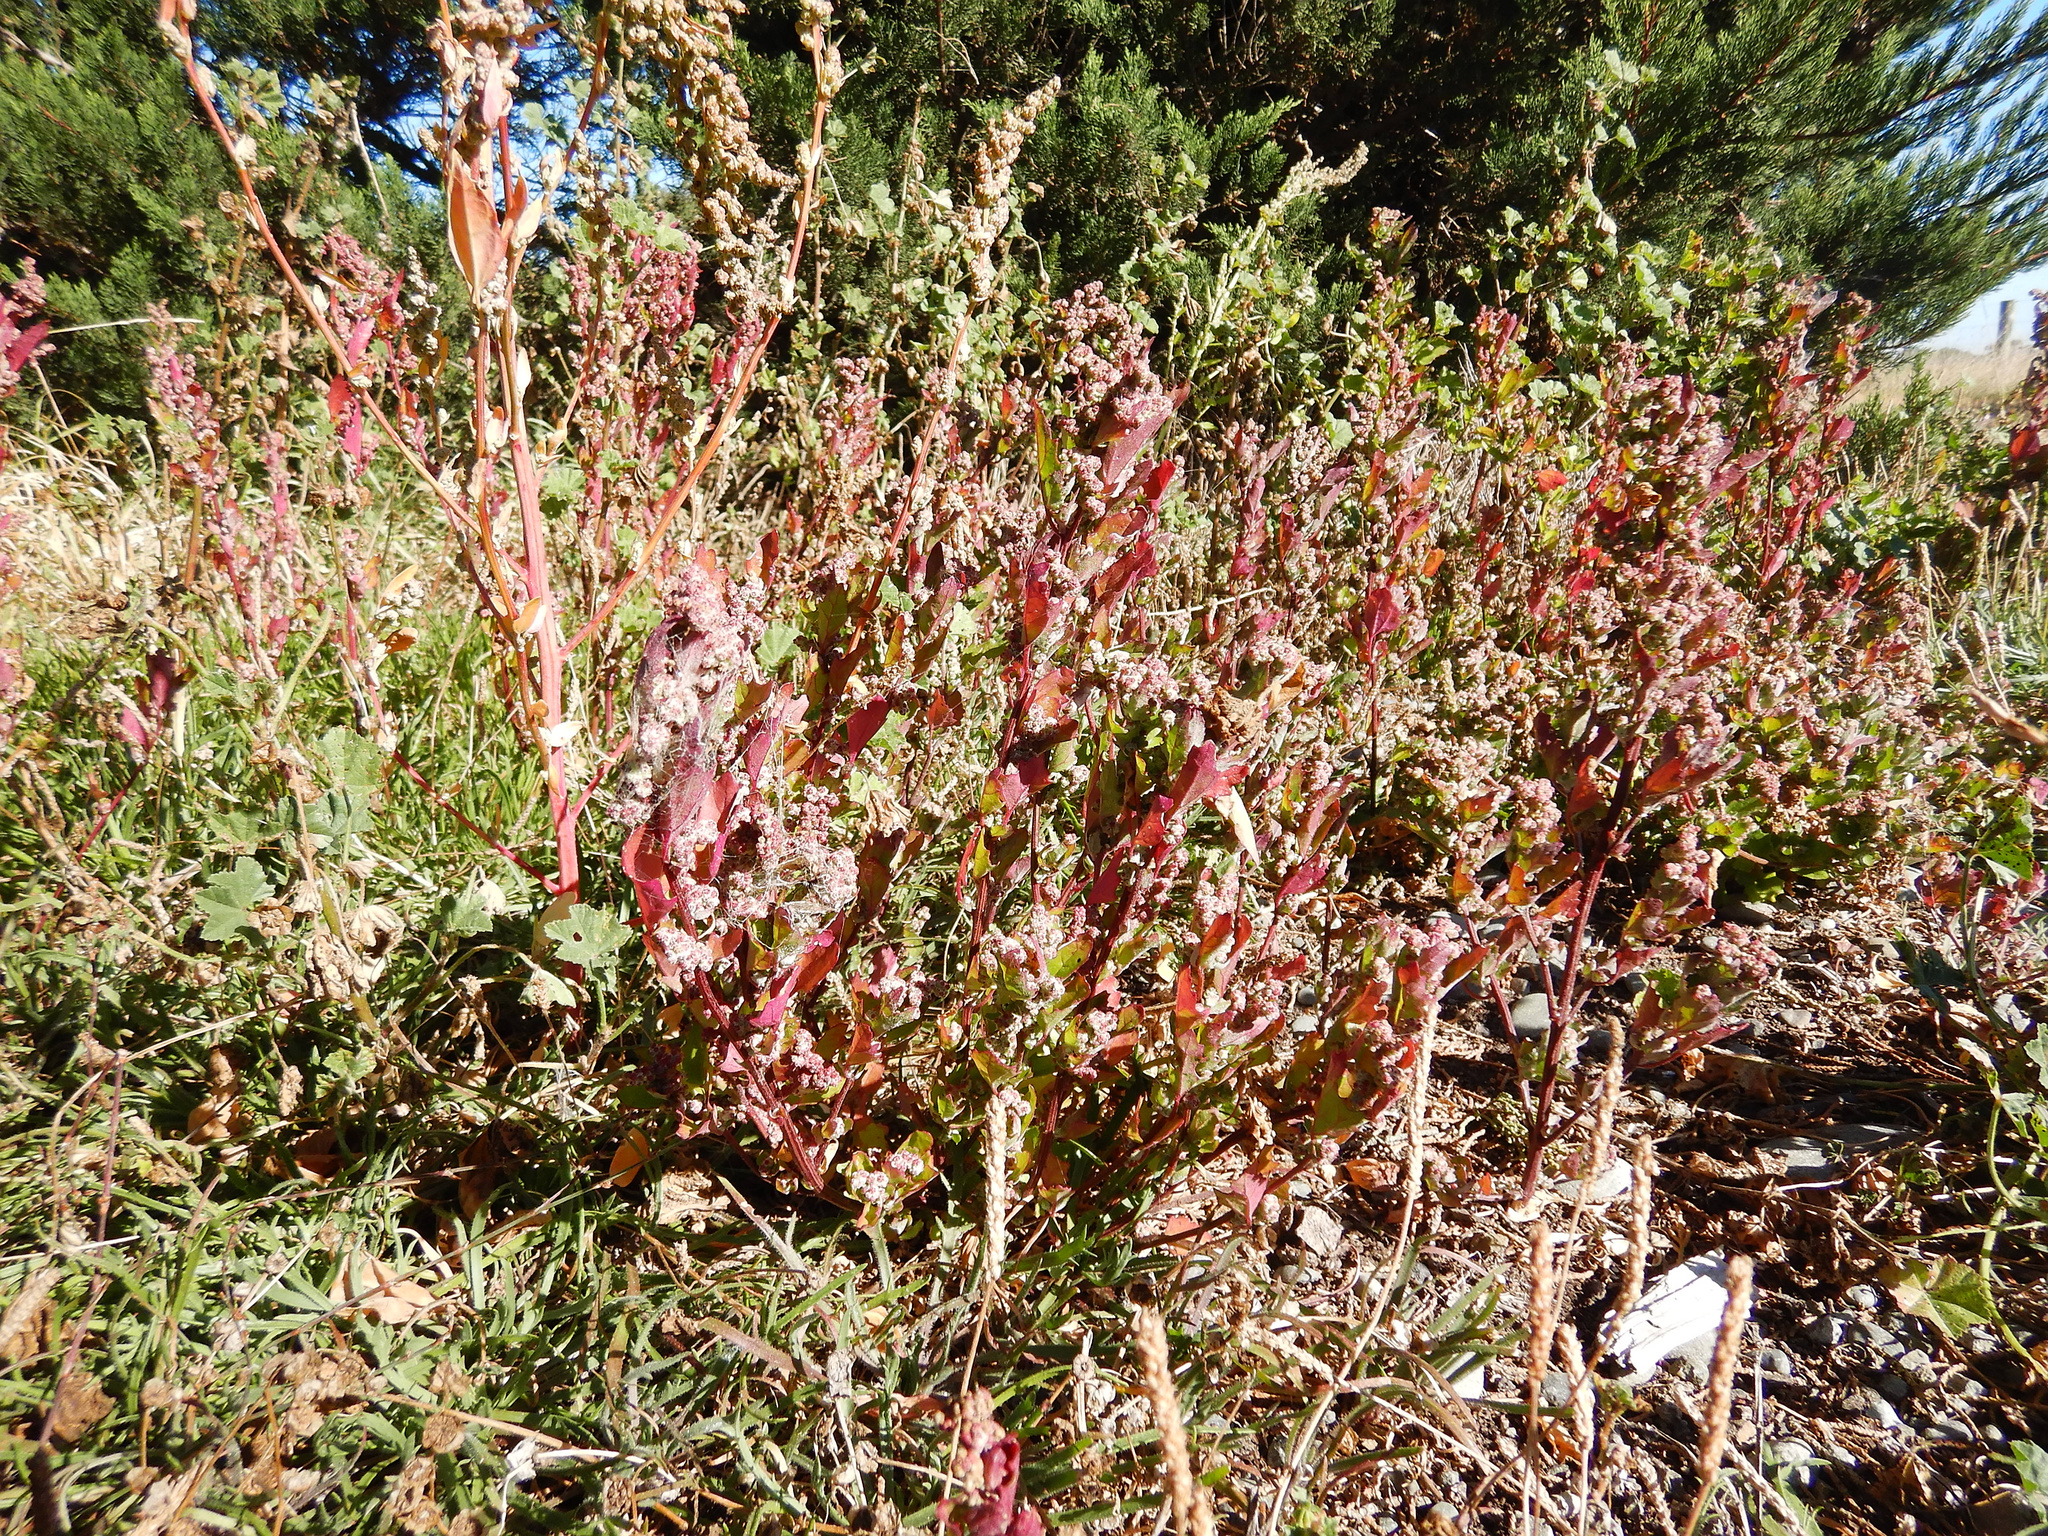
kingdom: Plantae
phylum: Tracheophyta
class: Magnoliopsida
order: Caryophyllales
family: Amaranthaceae
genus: Chenopodium
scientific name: Chenopodium album
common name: Fat-hen
